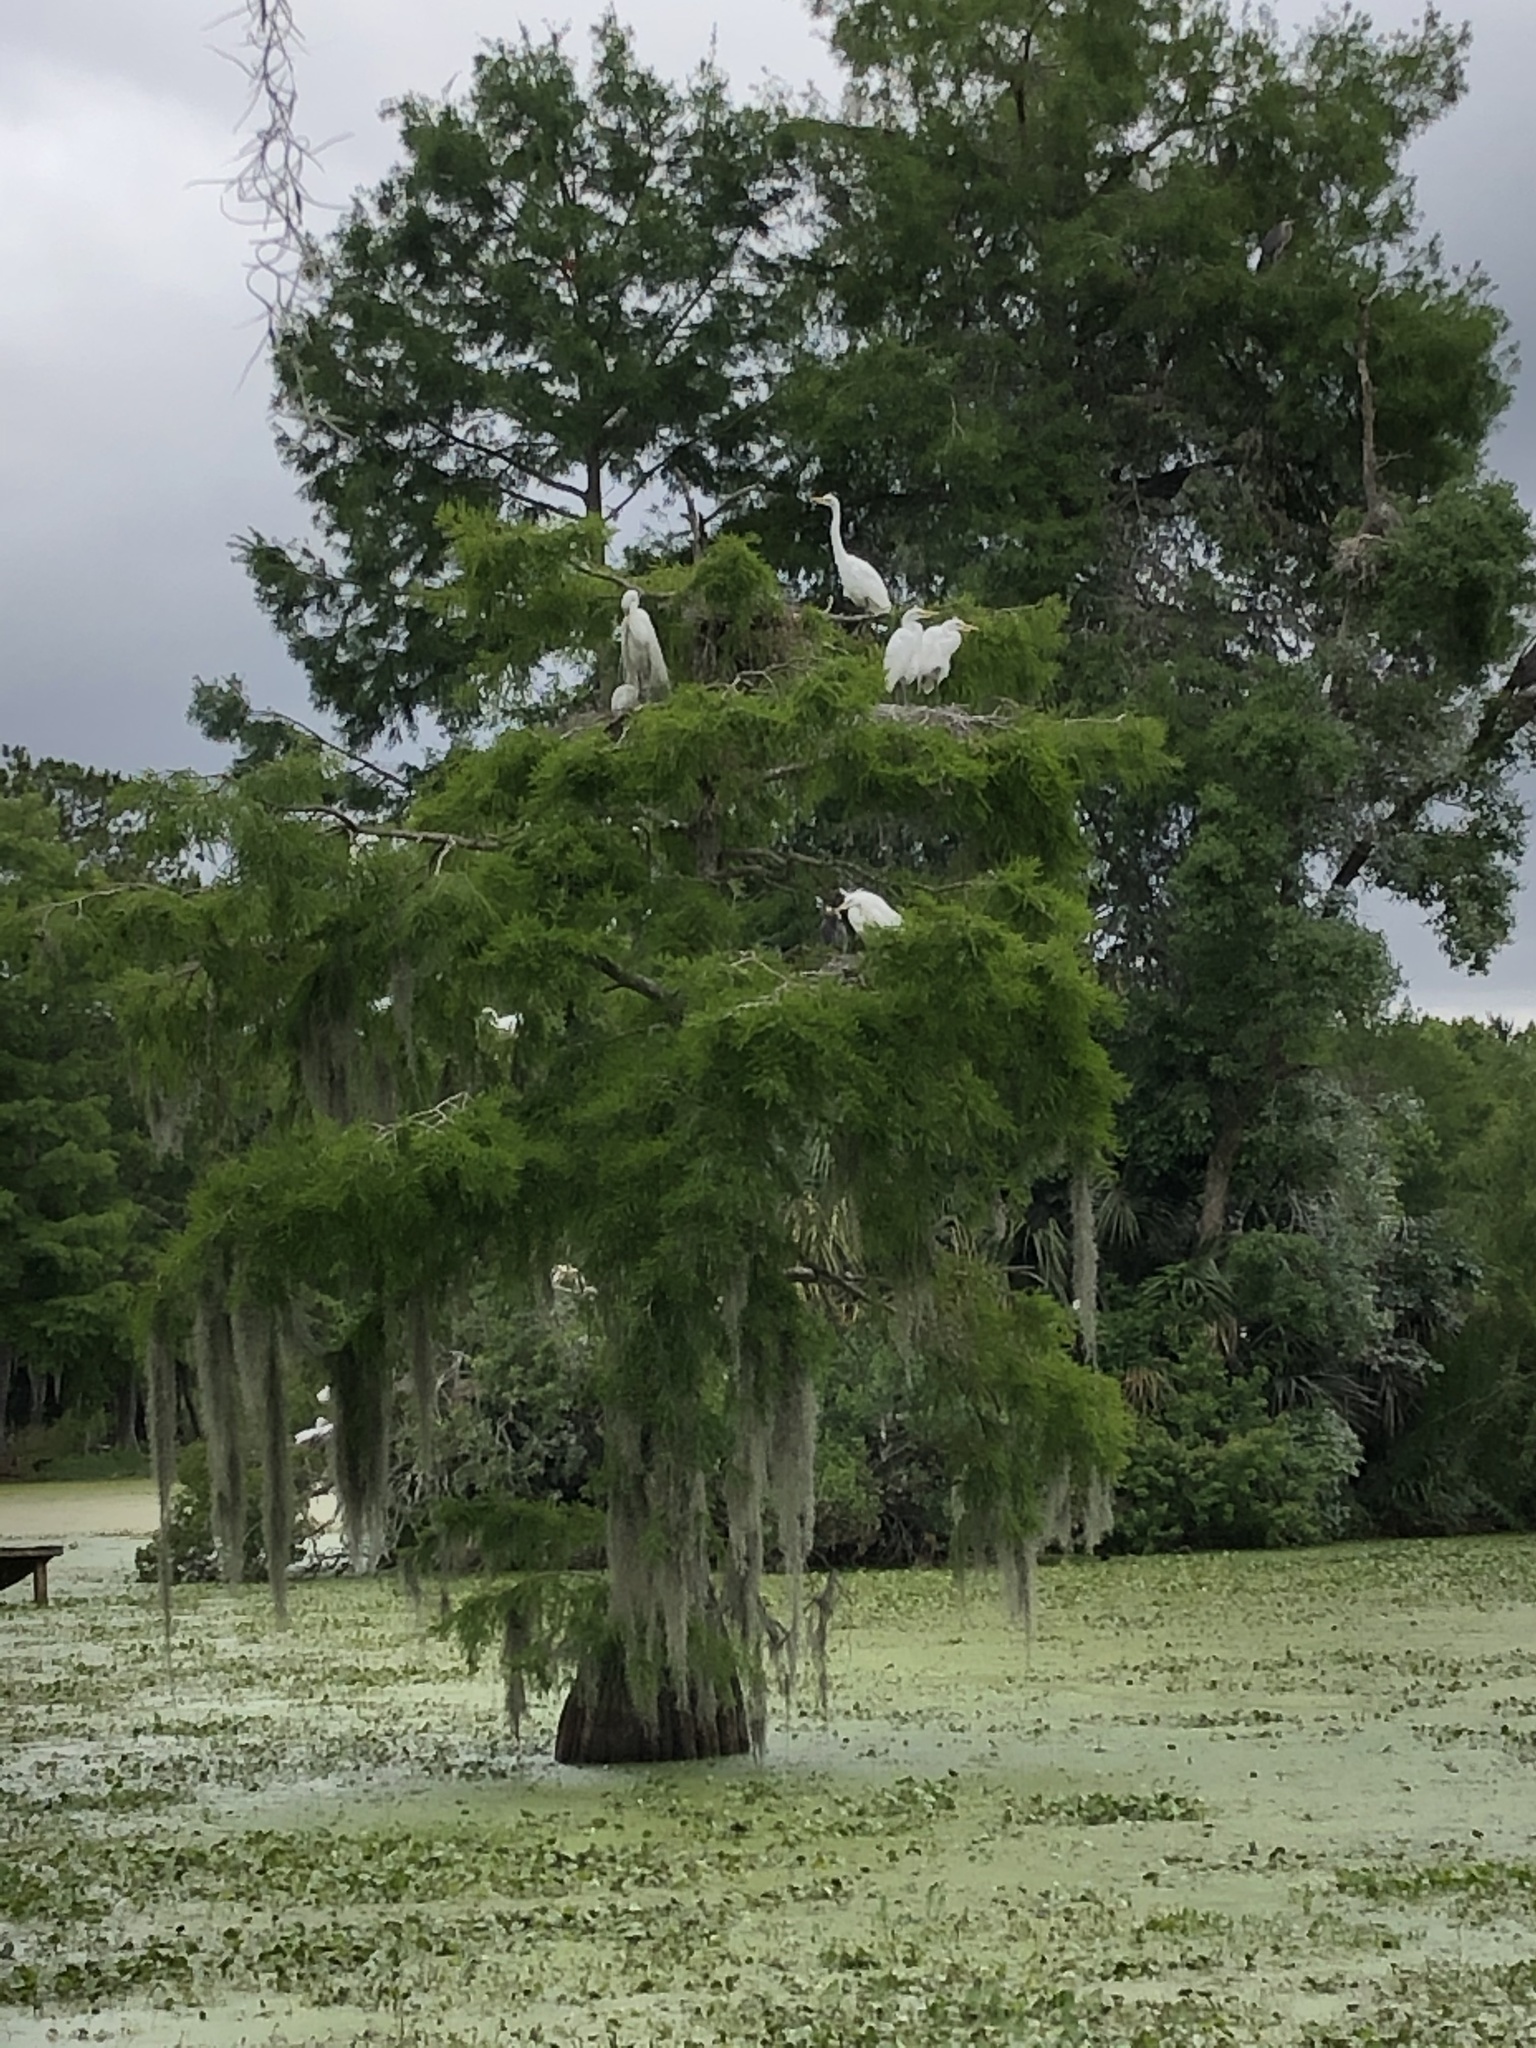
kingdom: Animalia
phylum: Chordata
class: Aves
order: Pelecaniformes
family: Ardeidae
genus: Ardea
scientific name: Ardea alba
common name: Great egret
